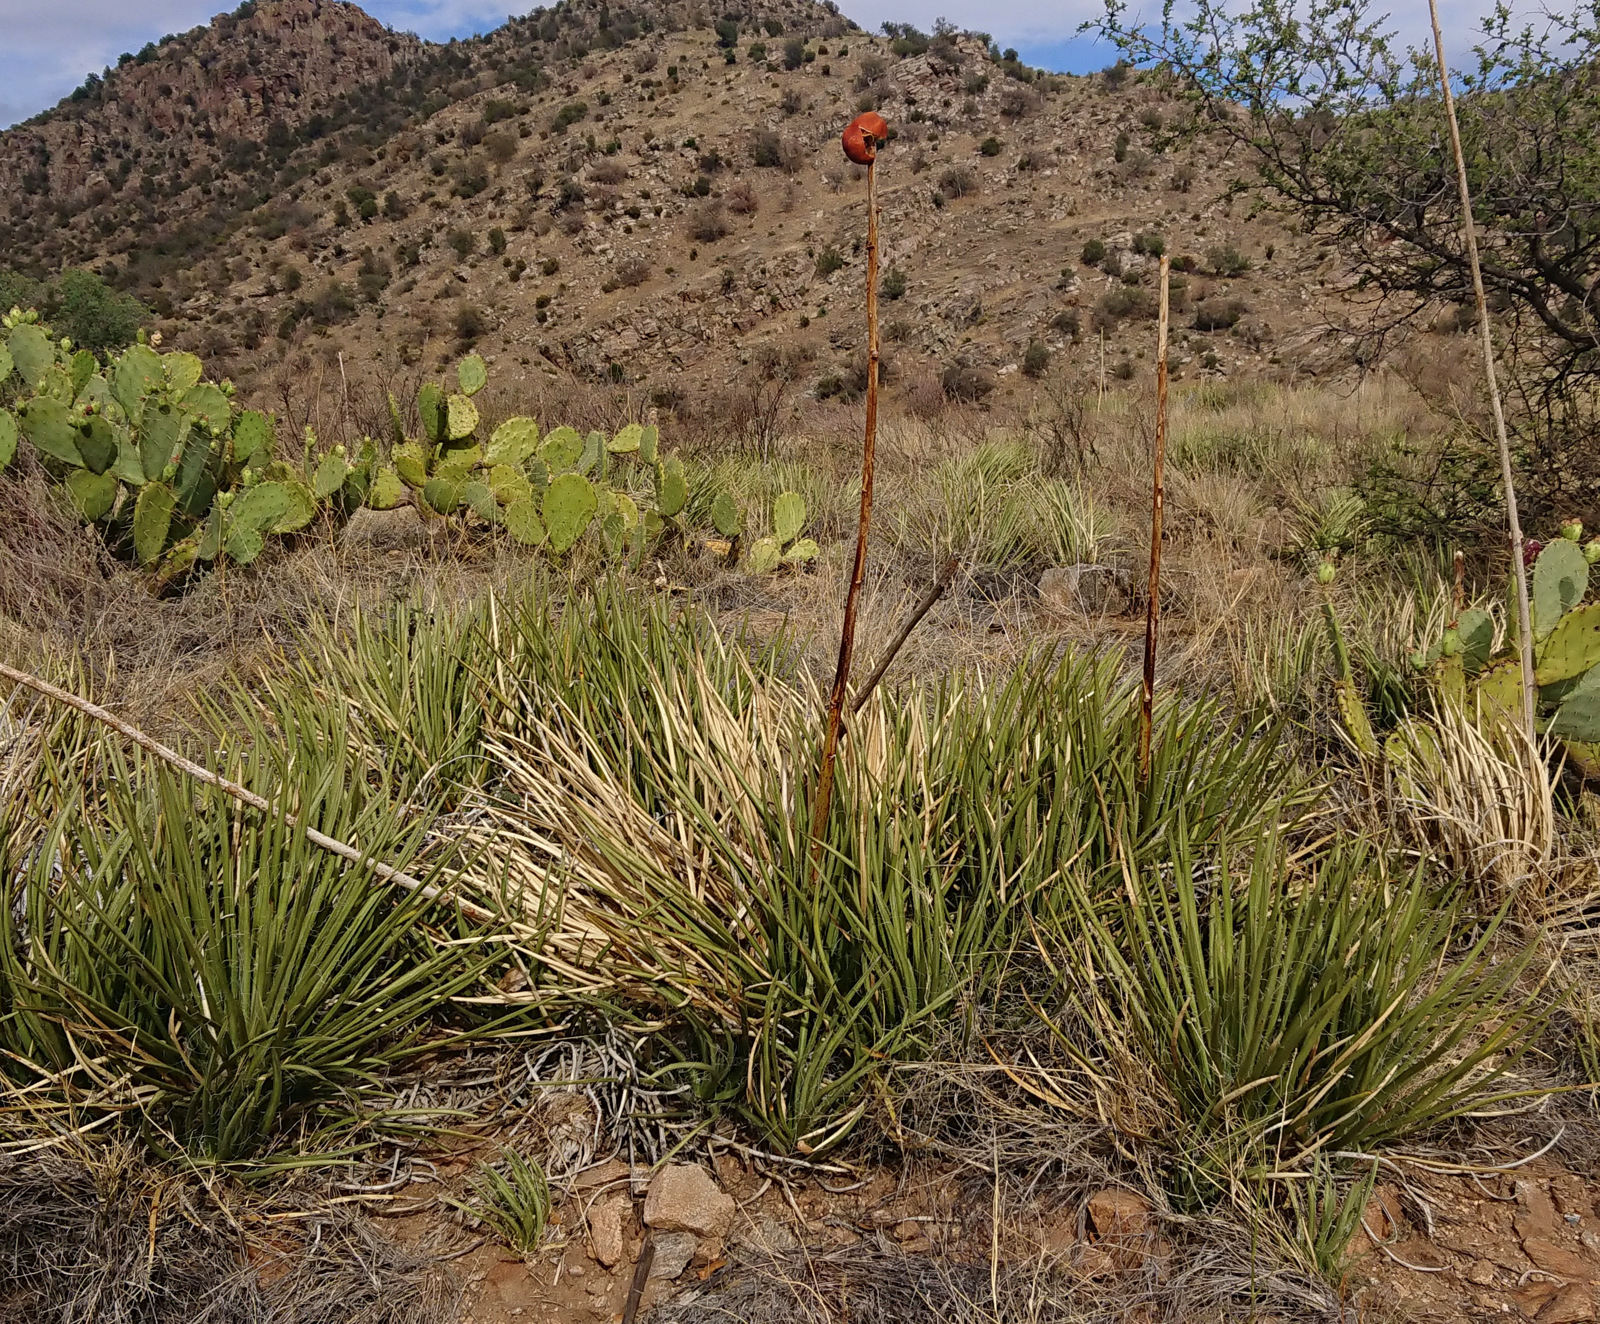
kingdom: Plantae
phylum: Tracheophyta
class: Liliopsida
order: Asparagales
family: Asparagaceae
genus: Agave
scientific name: Agave schottii
